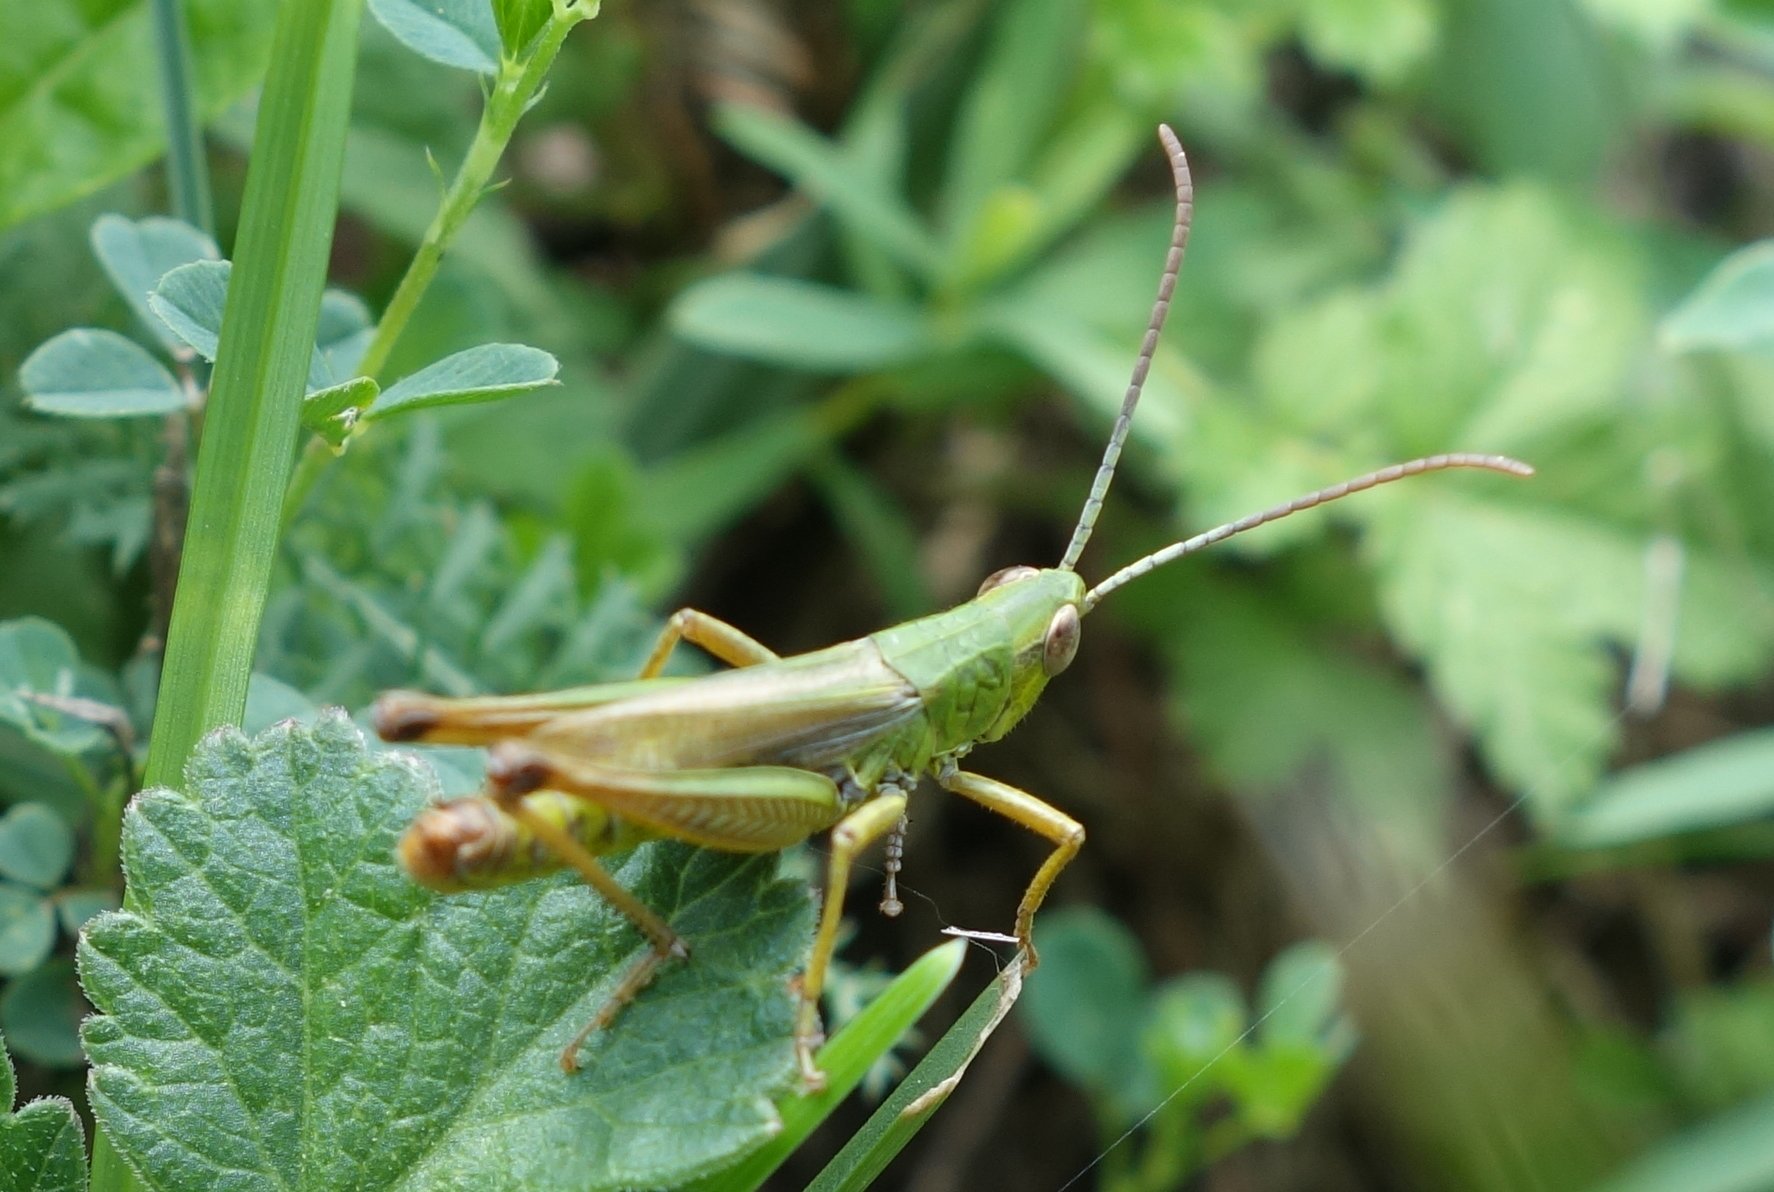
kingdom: Animalia
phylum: Arthropoda
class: Insecta
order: Orthoptera
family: Acrididae
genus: Pseudochorthippus
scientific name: Pseudochorthippus parallelus
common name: Meadow grasshopper
